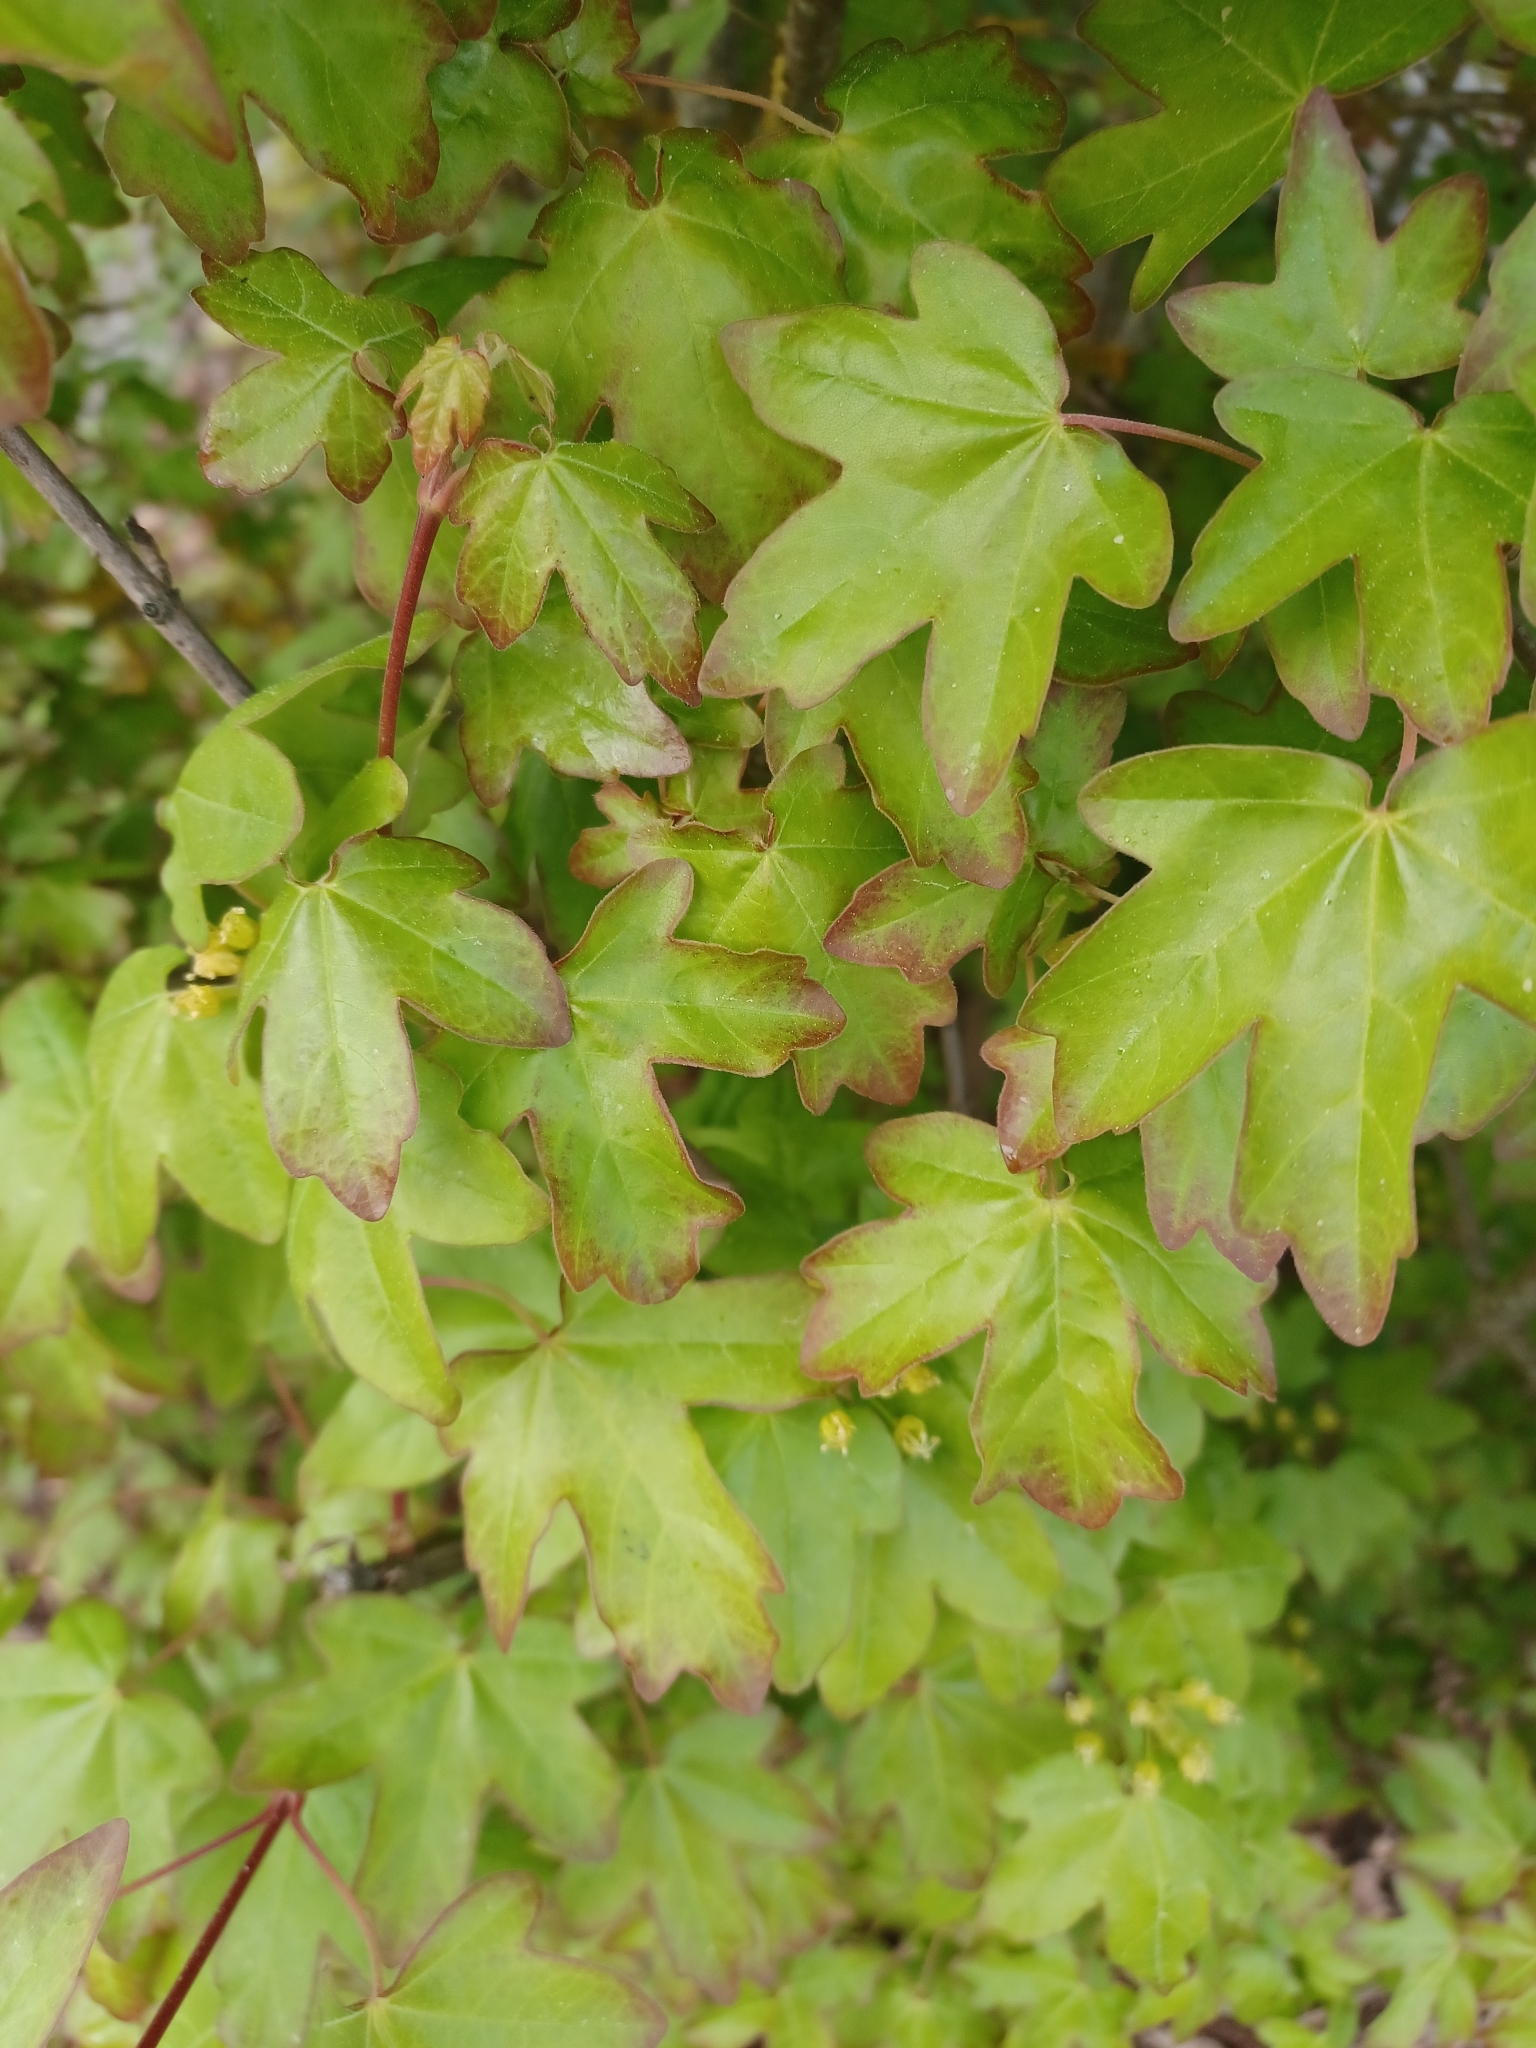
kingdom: Plantae
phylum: Tracheophyta
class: Magnoliopsida
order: Sapindales
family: Sapindaceae
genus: Acer
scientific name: Acer campestre
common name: Field maple
